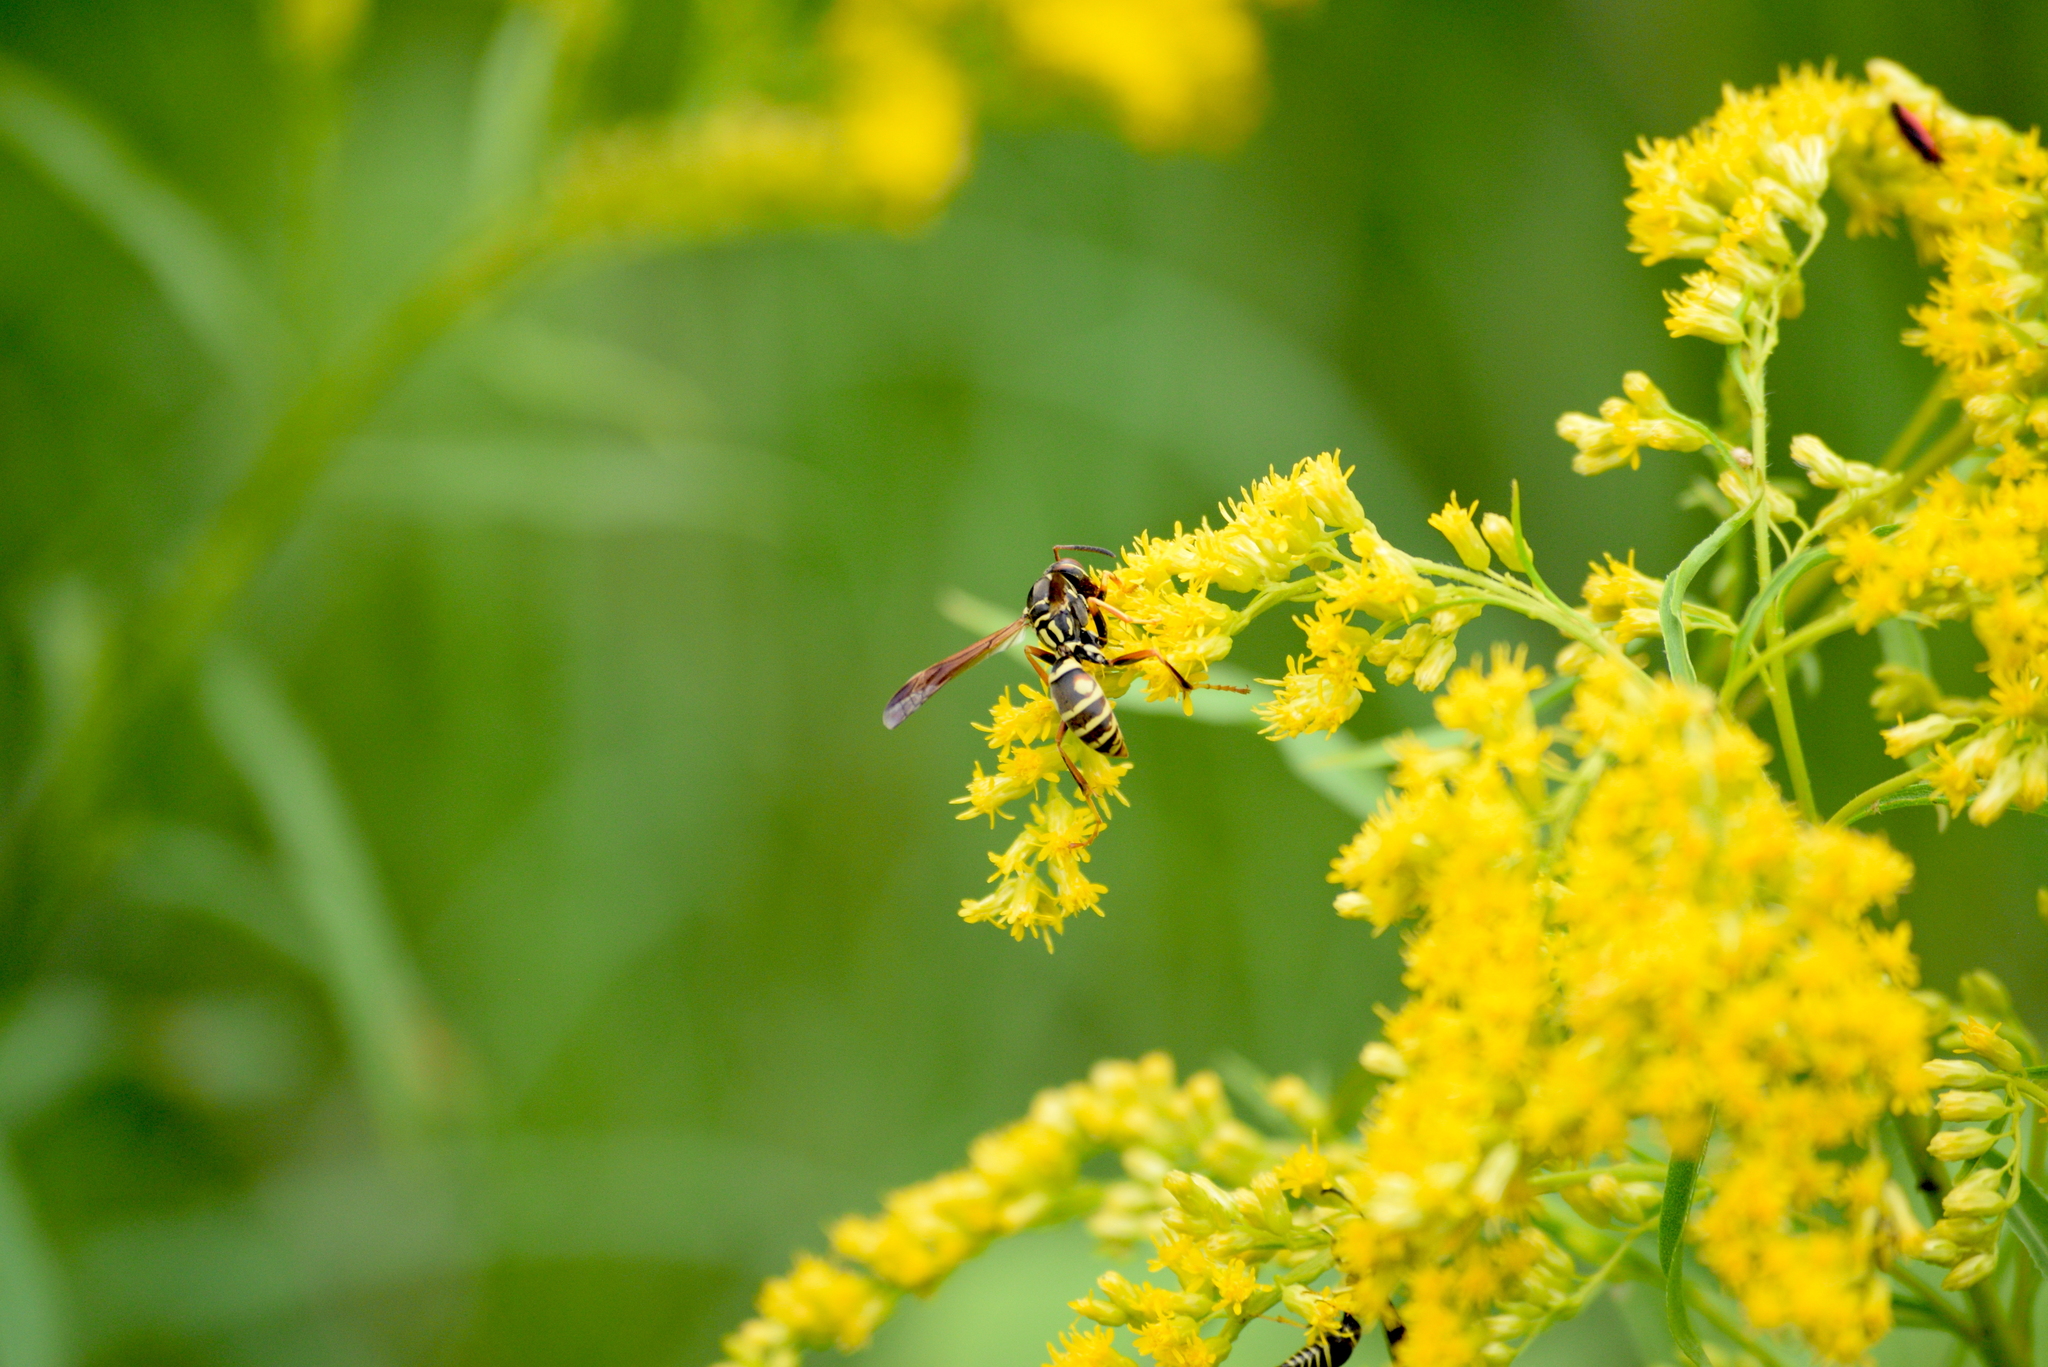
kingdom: Animalia
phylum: Arthropoda
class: Insecta
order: Hymenoptera
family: Eumenidae
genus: Polistes
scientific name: Polistes fuscatus
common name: Dark paper wasp
